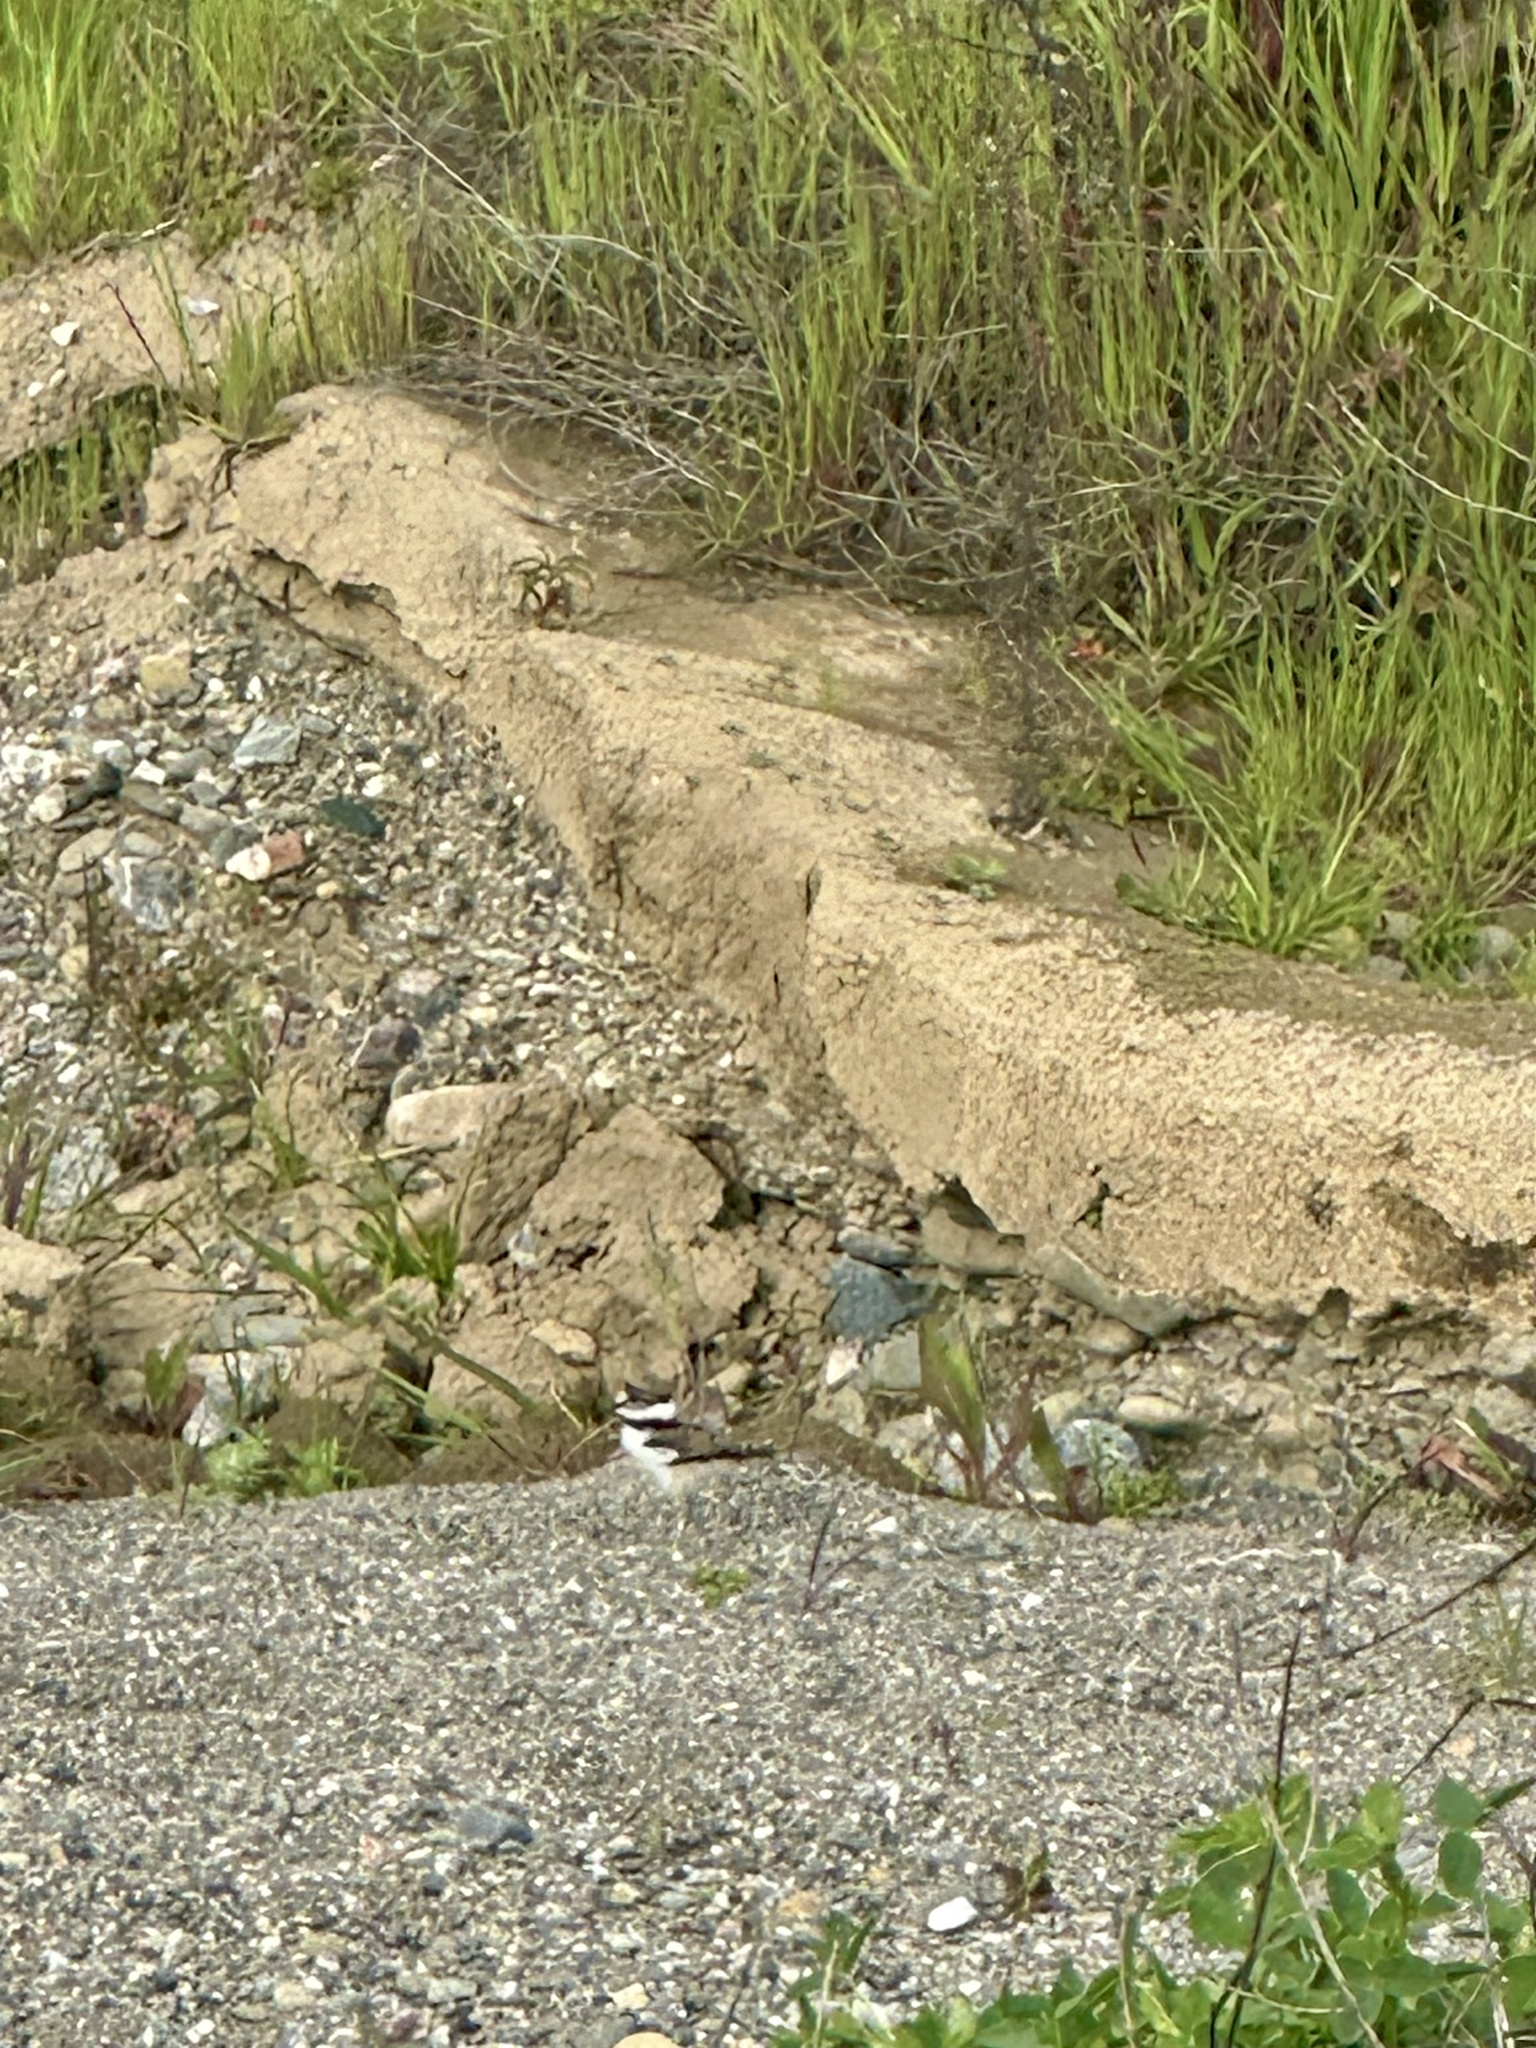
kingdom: Animalia
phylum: Chordata
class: Aves
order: Charadriiformes
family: Charadriidae
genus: Charadrius
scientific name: Charadrius vociferus
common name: Killdeer
